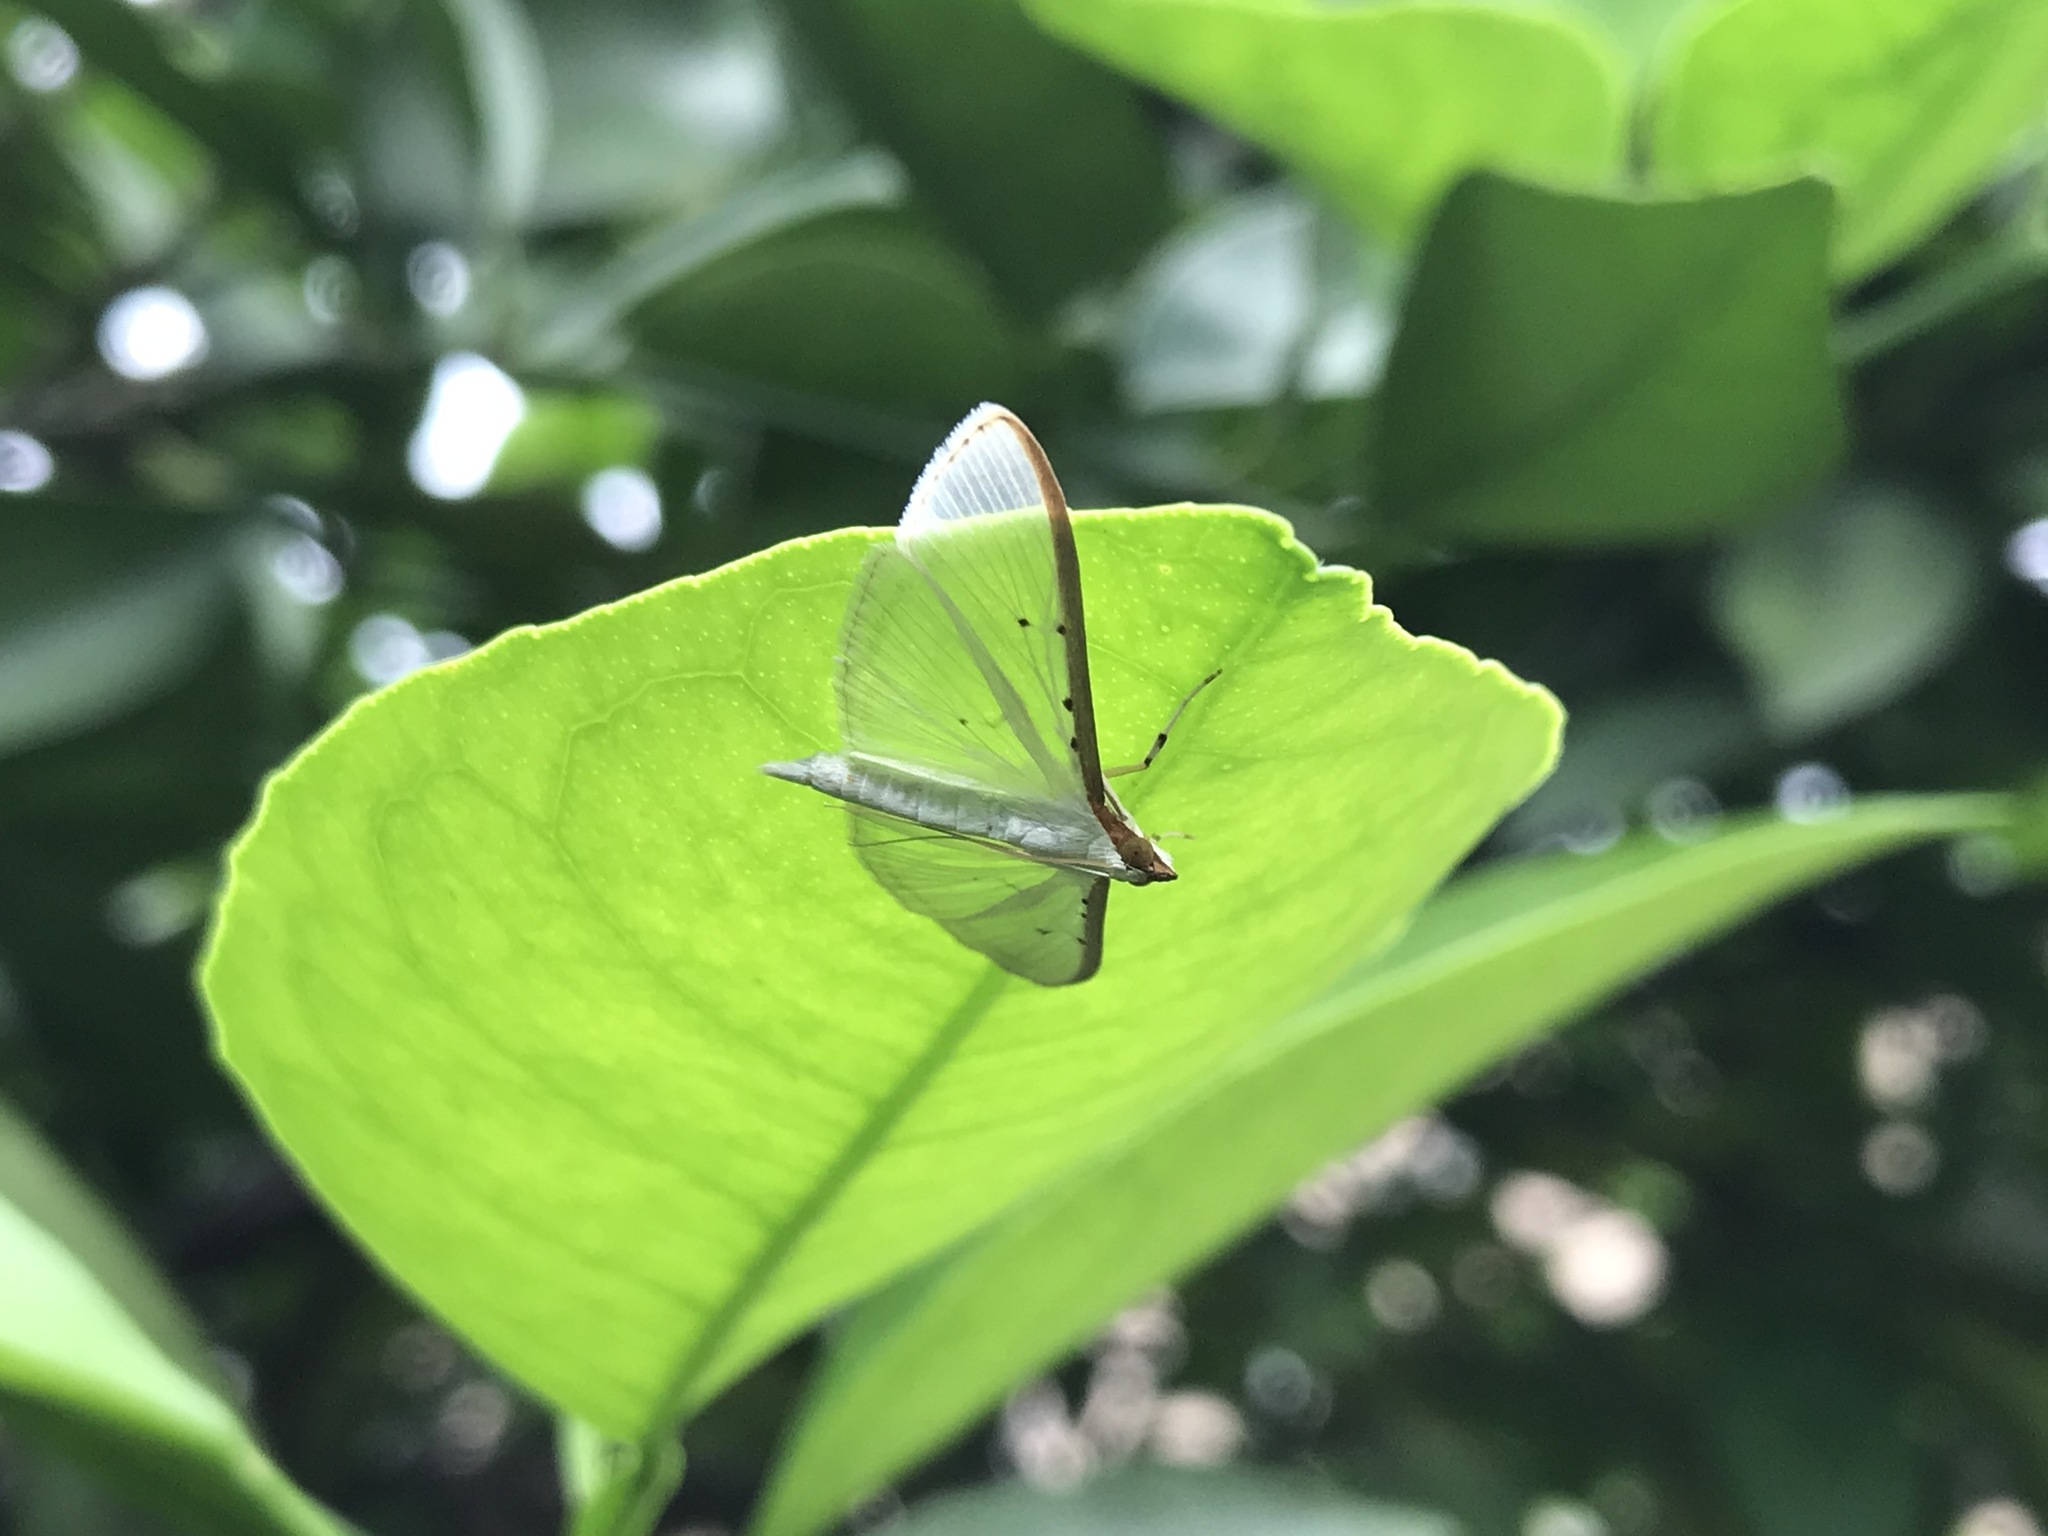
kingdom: Animalia
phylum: Arthropoda
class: Insecta
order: Lepidoptera
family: Crambidae
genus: Palpita
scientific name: Palpita quadristigmalis
